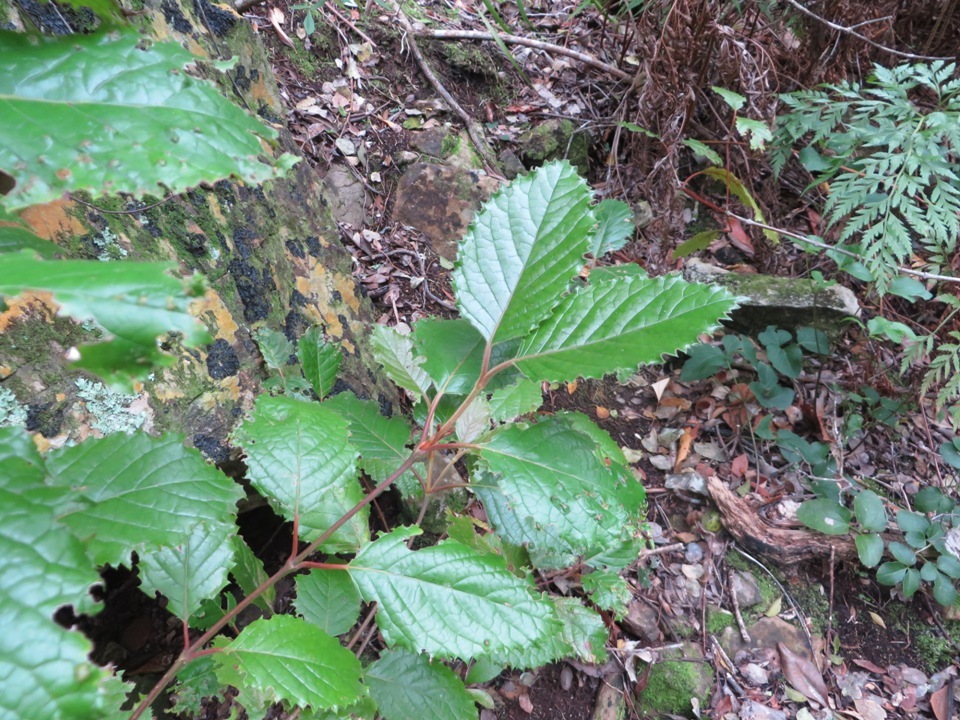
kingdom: Plantae
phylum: Tracheophyta
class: Magnoliopsida
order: Cornales
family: Curtisiaceae
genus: Curtisia
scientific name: Curtisia dentata
